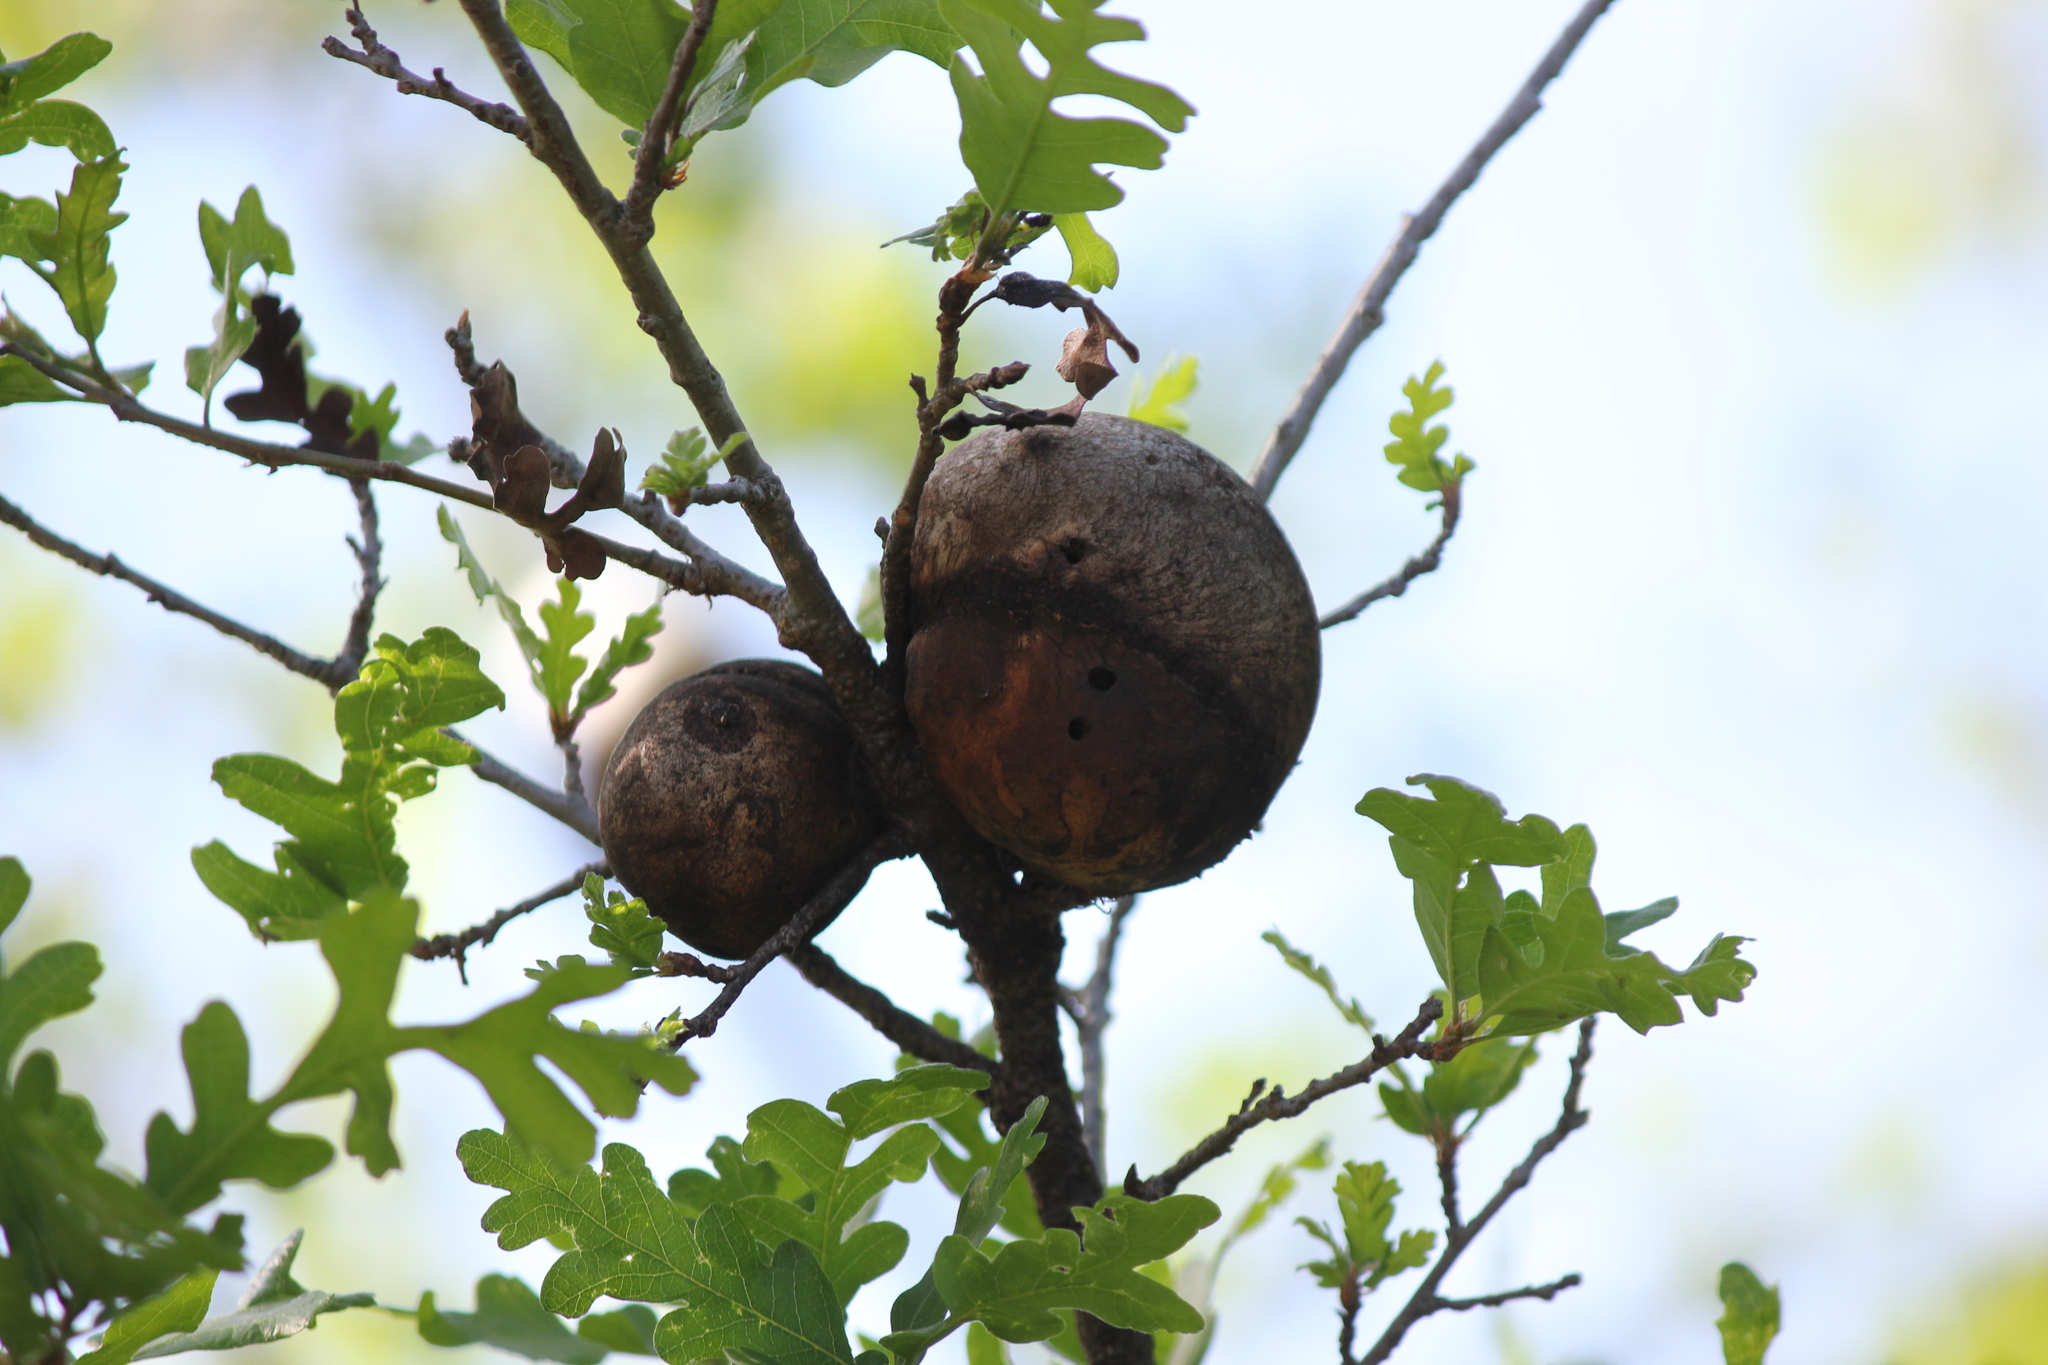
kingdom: Animalia
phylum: Arthropoda
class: Insecta
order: Hymenoptera
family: Cynipidae
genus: Andricus
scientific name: Andricus quercuscalifornicus
